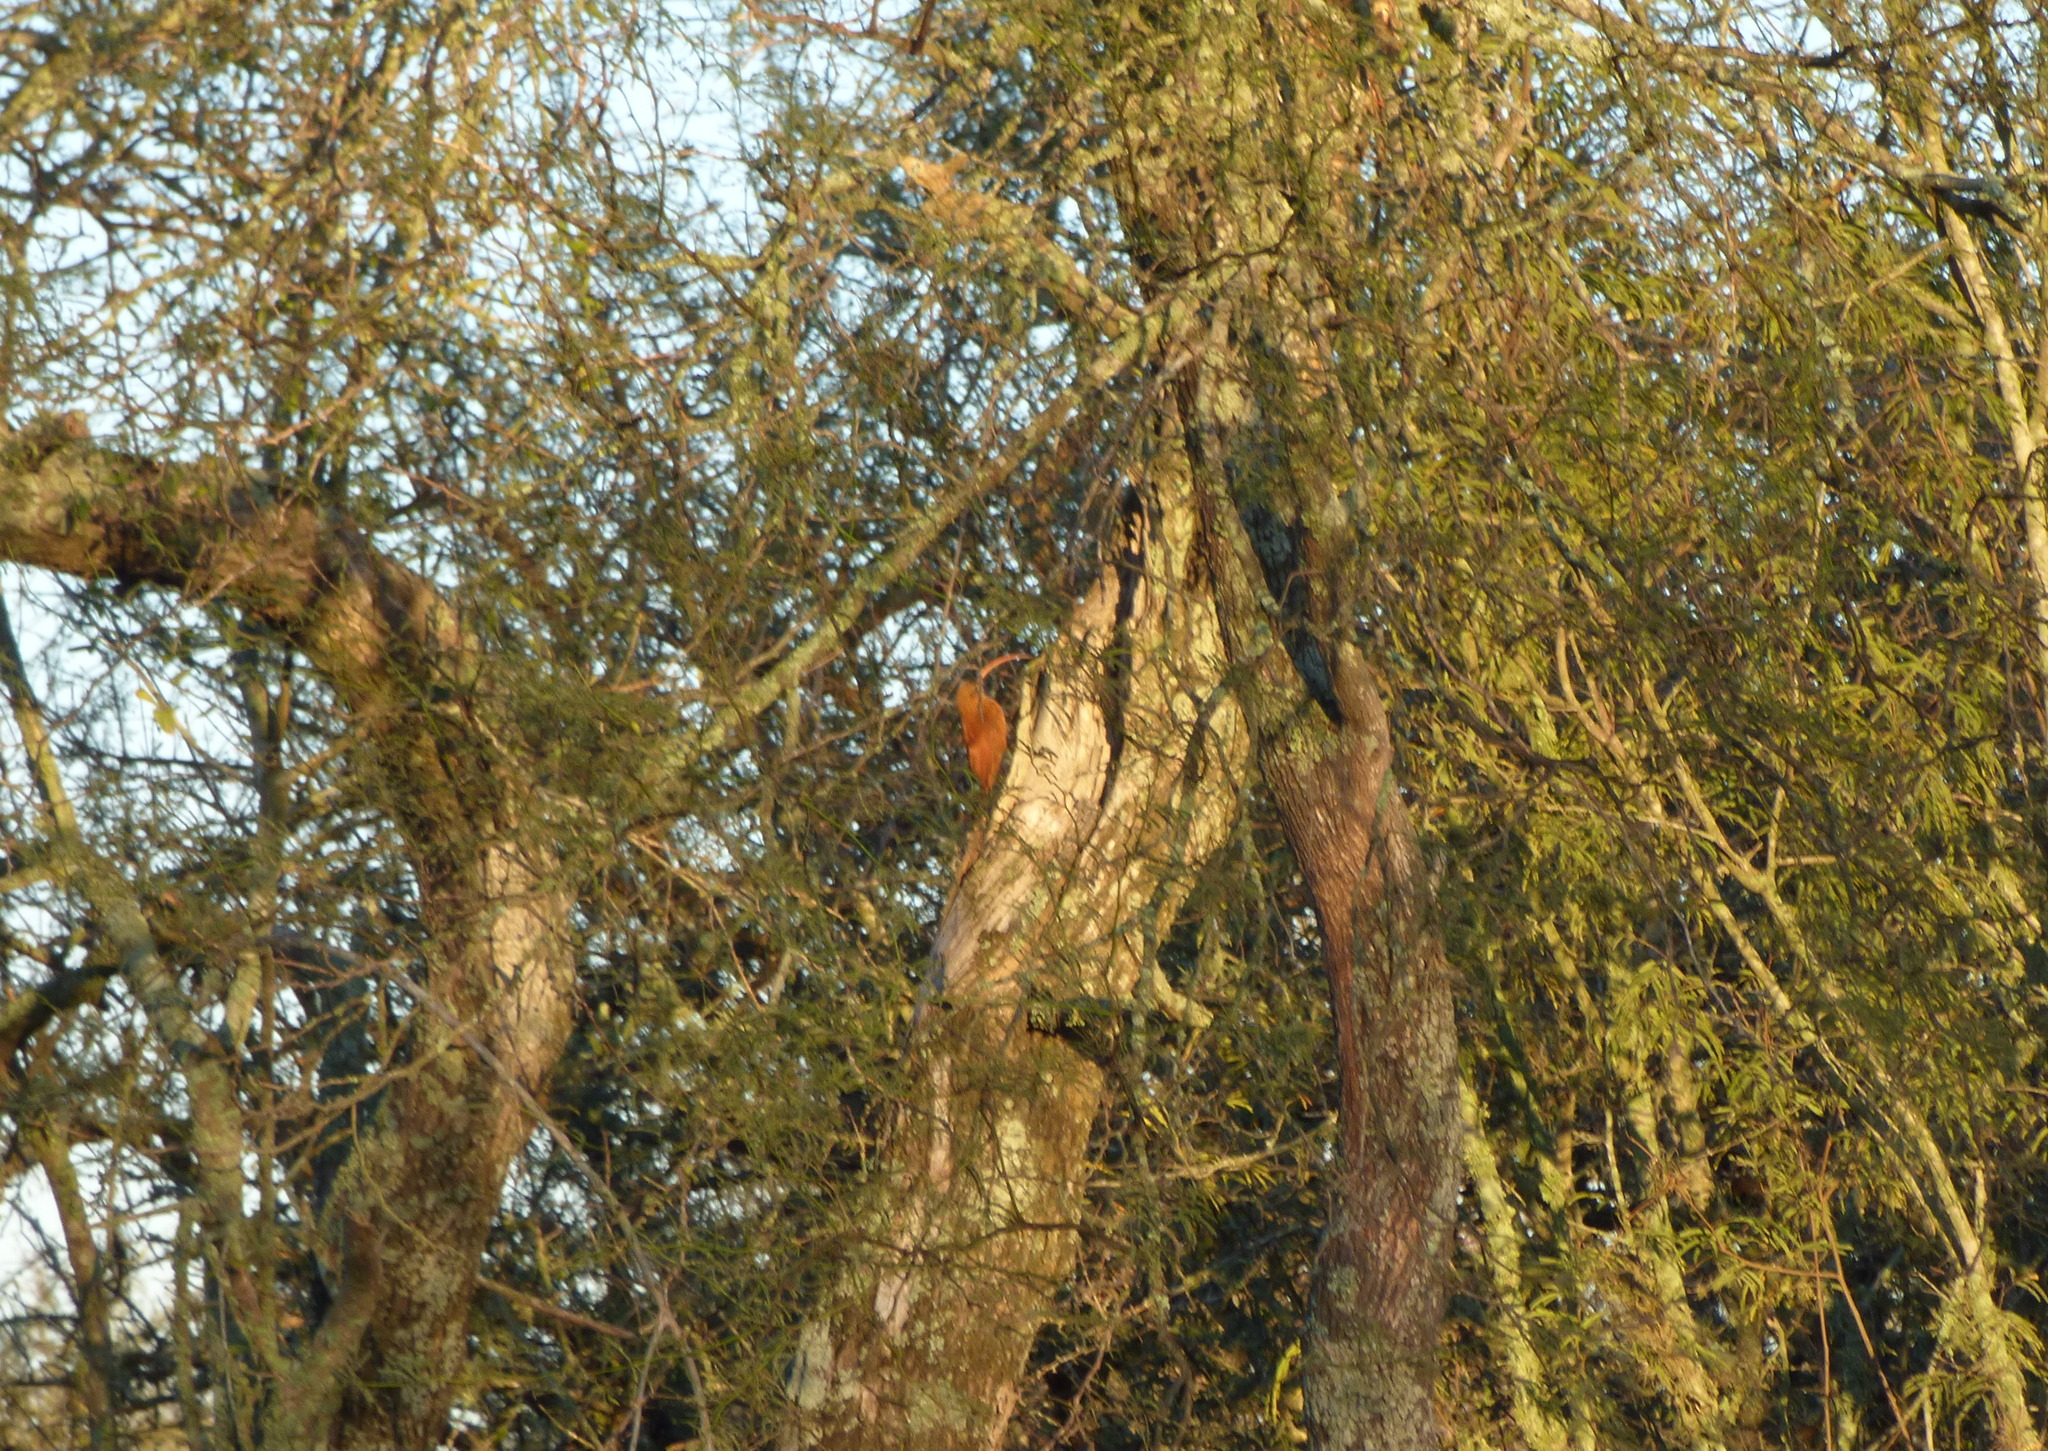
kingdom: Animalia
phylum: Chordata
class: Aves
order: Passeriformes
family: Furnariidae
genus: Campylorhamphus
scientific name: Campylorhamphus trochilirostris
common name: Red-billed scythebill
